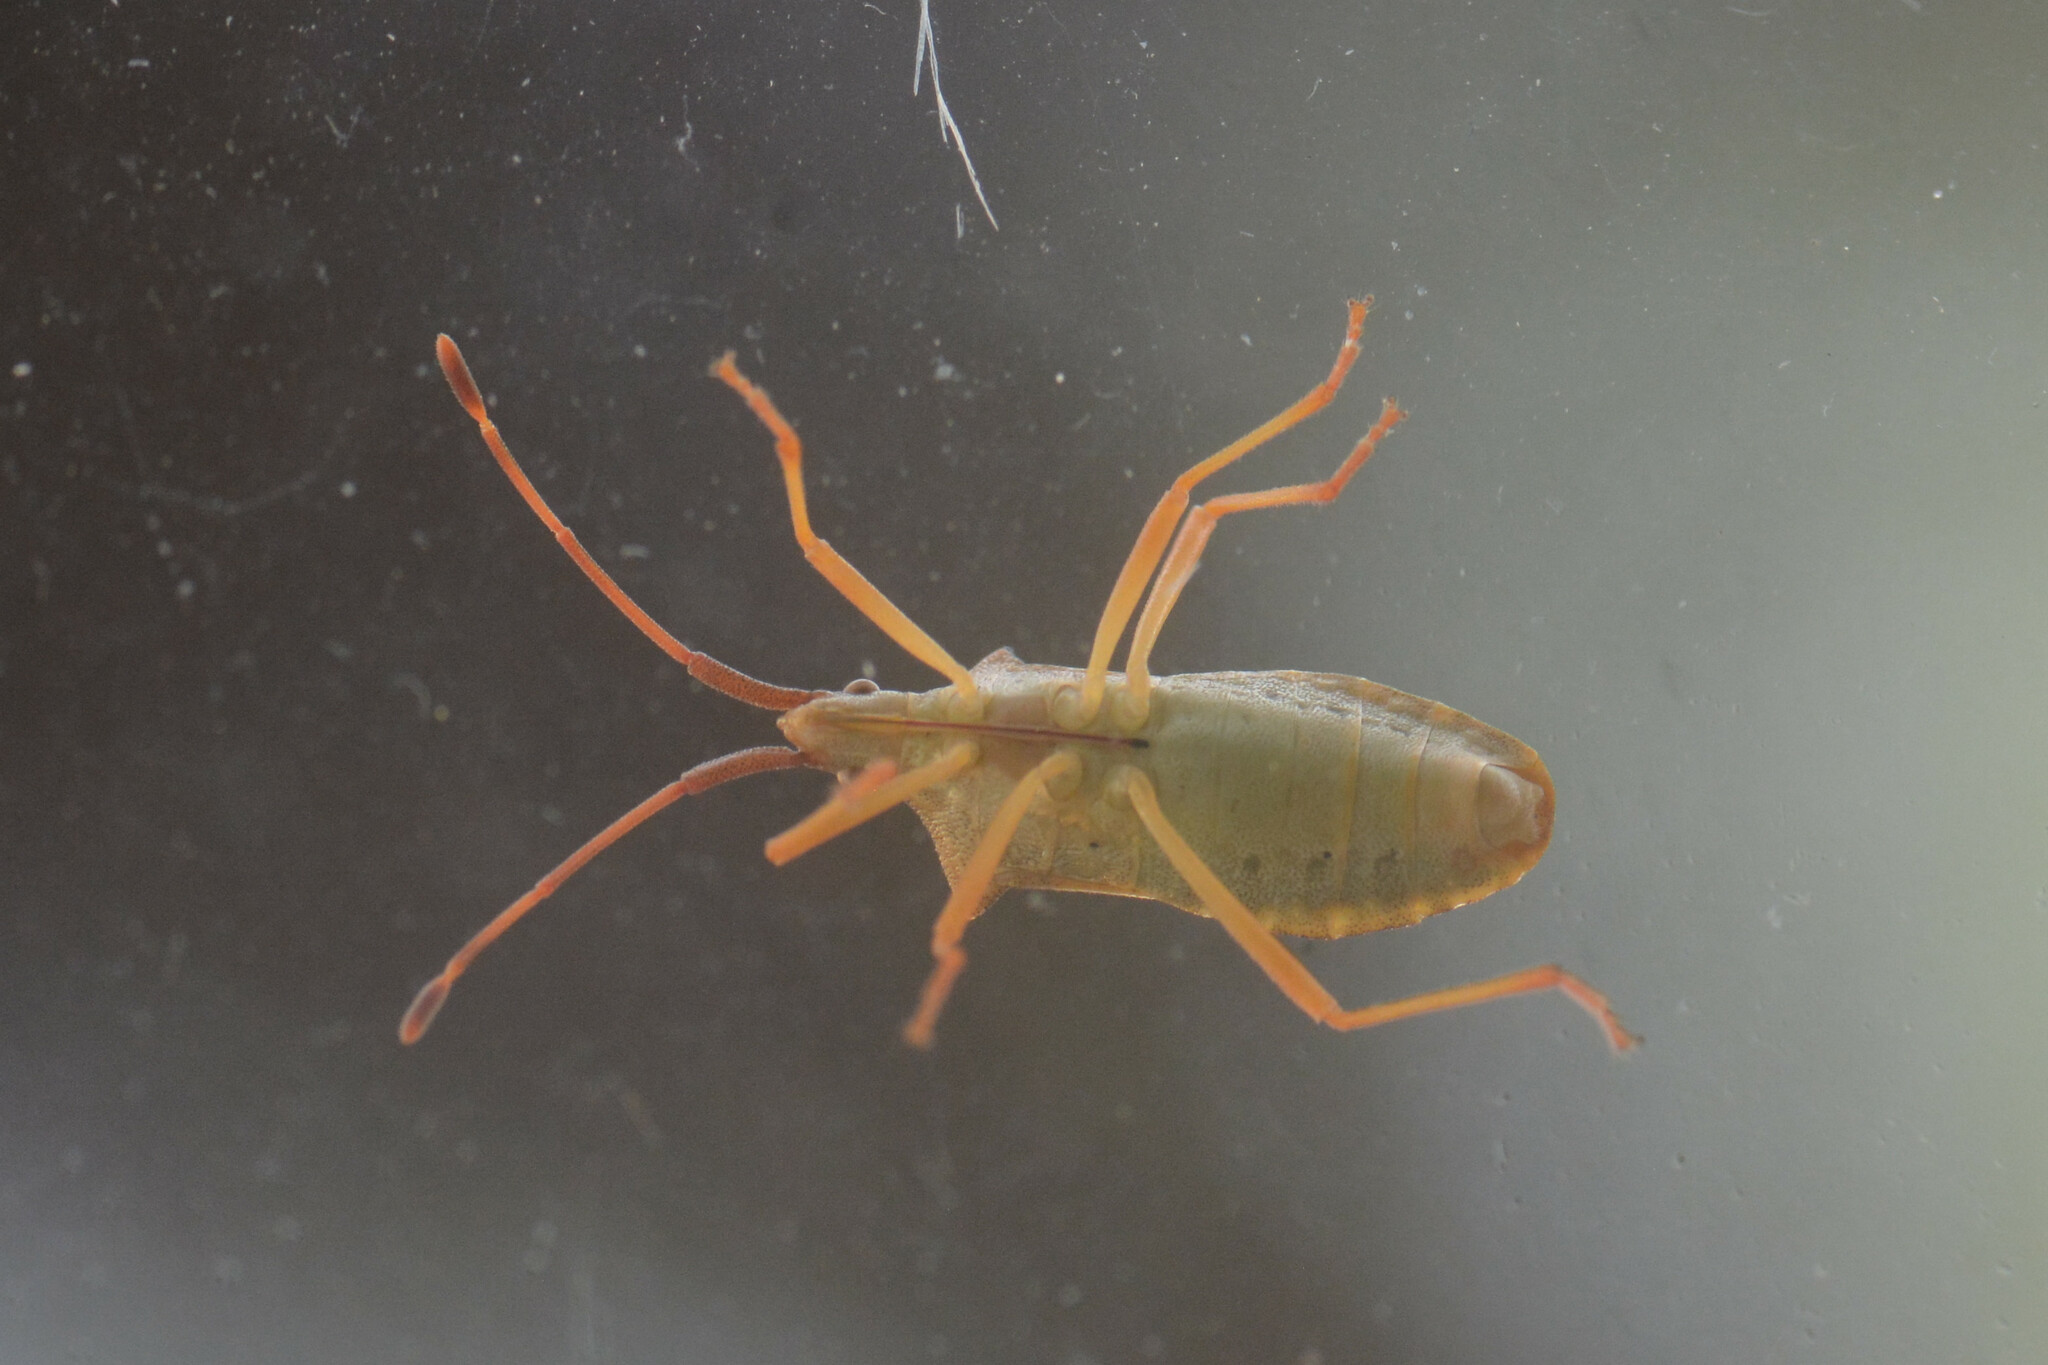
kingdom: Animalia
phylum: Arthropoda
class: Insecta
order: Hemiptera
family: Coreidae
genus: Gonocerus
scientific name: Gonocerus acuteangulatus
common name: Box bug
